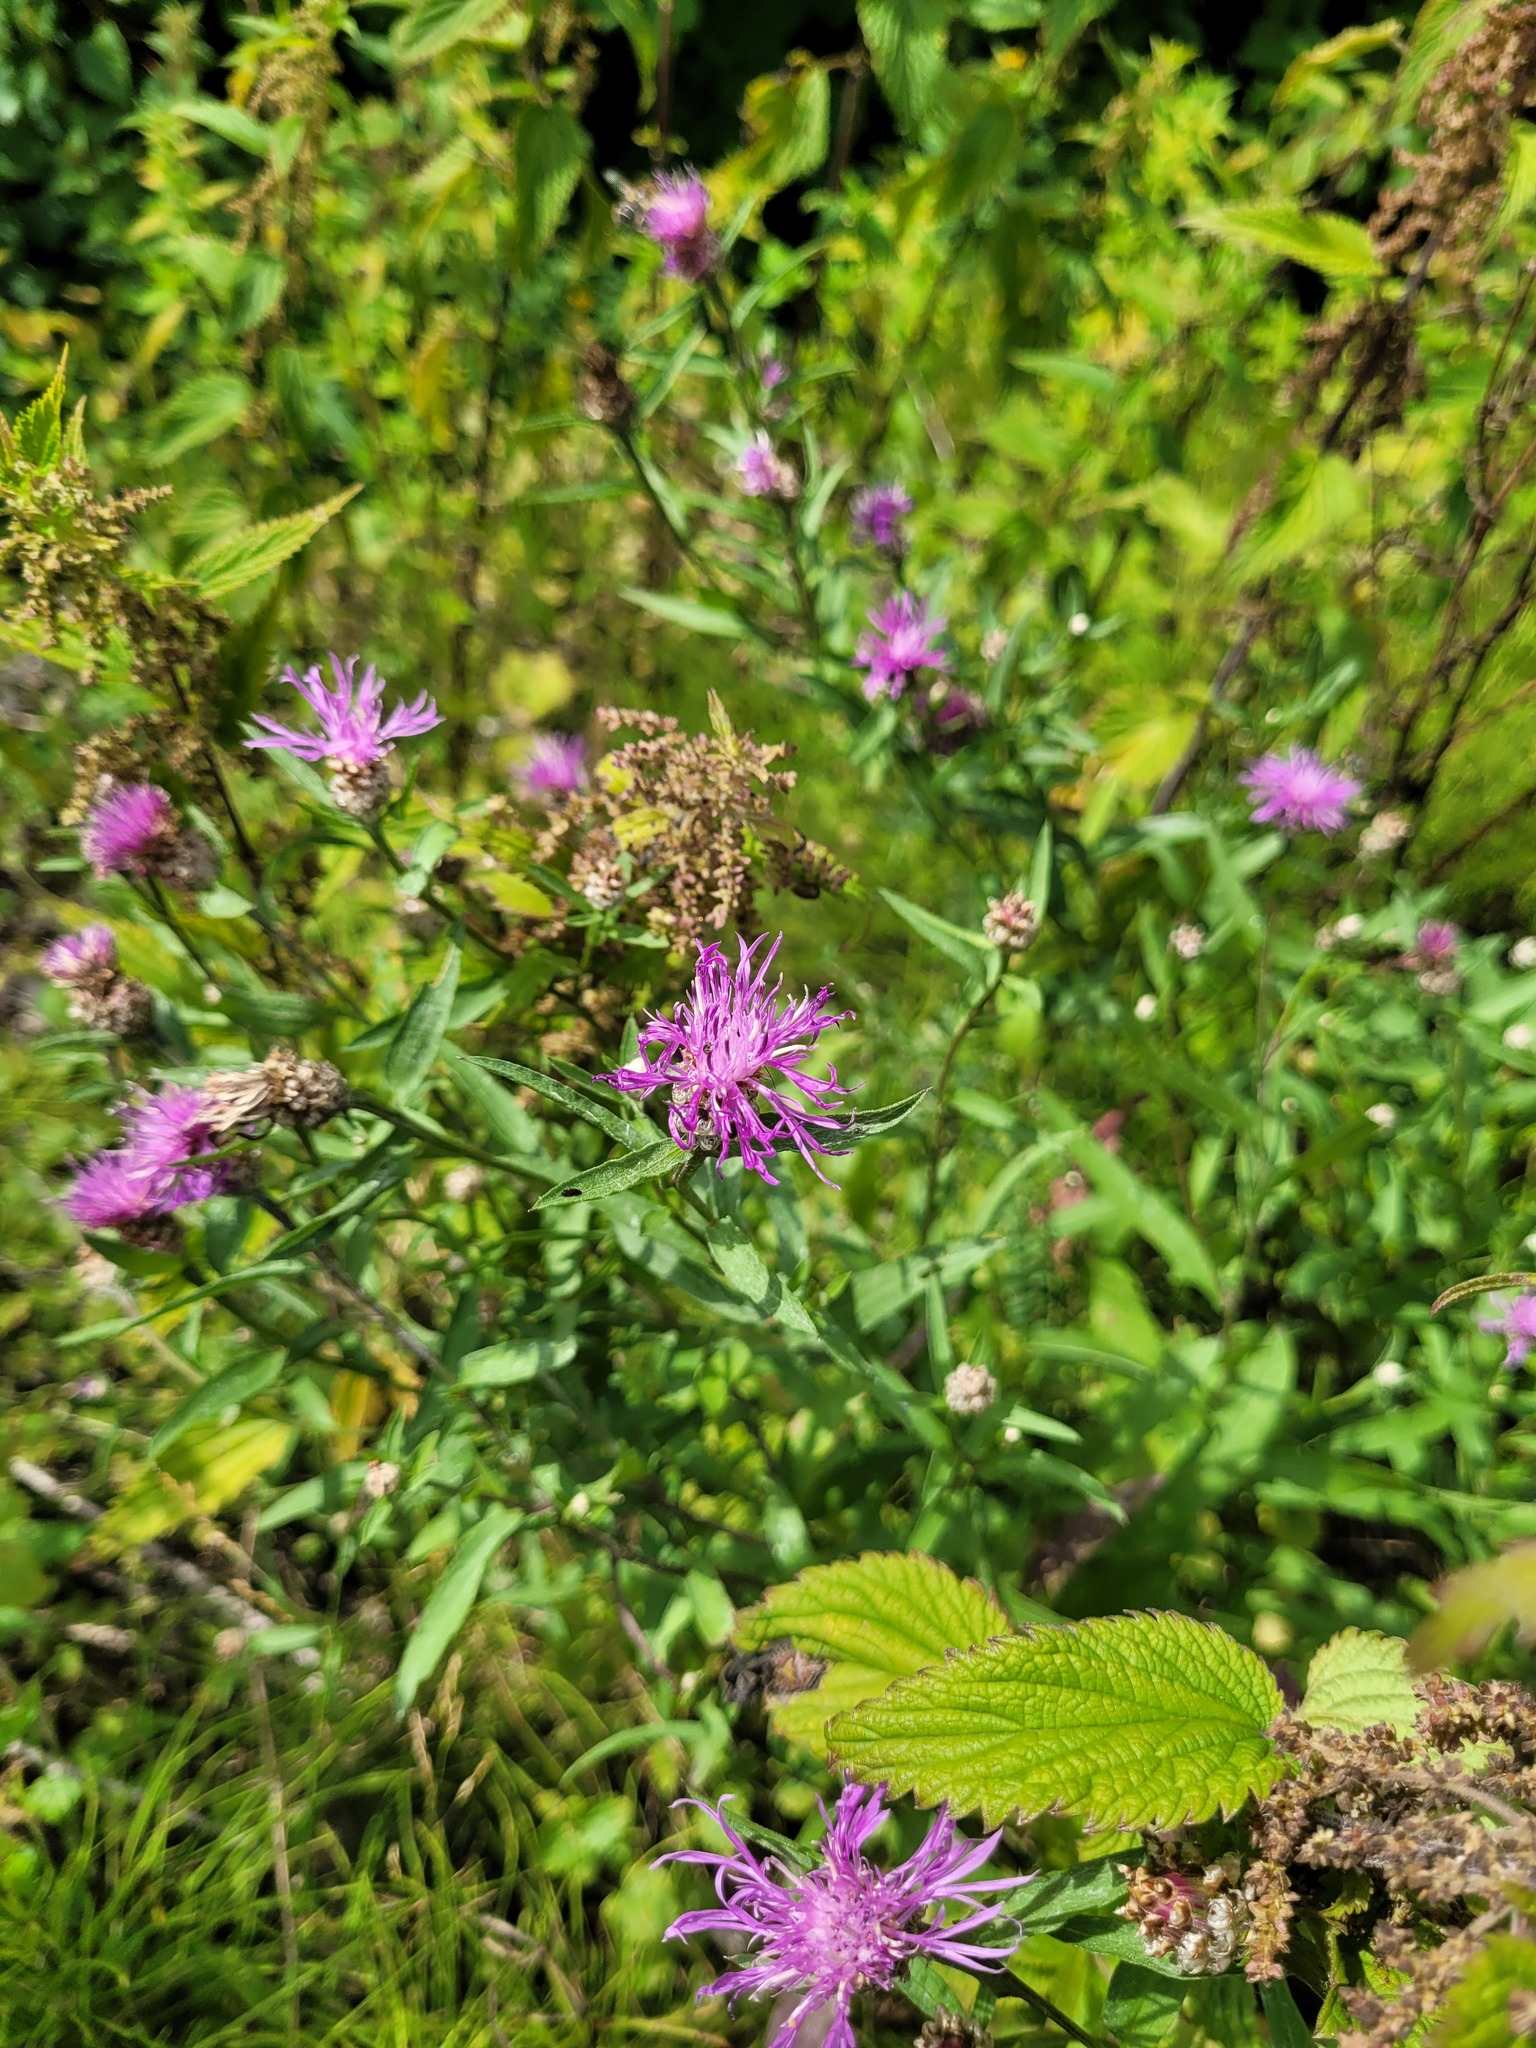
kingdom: Plantae
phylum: Tracheophyta
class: Magnoliopsida
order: Asterales
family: Asteraceae
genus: Centaurea
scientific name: Centaurea jacea
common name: Brown knapweed
